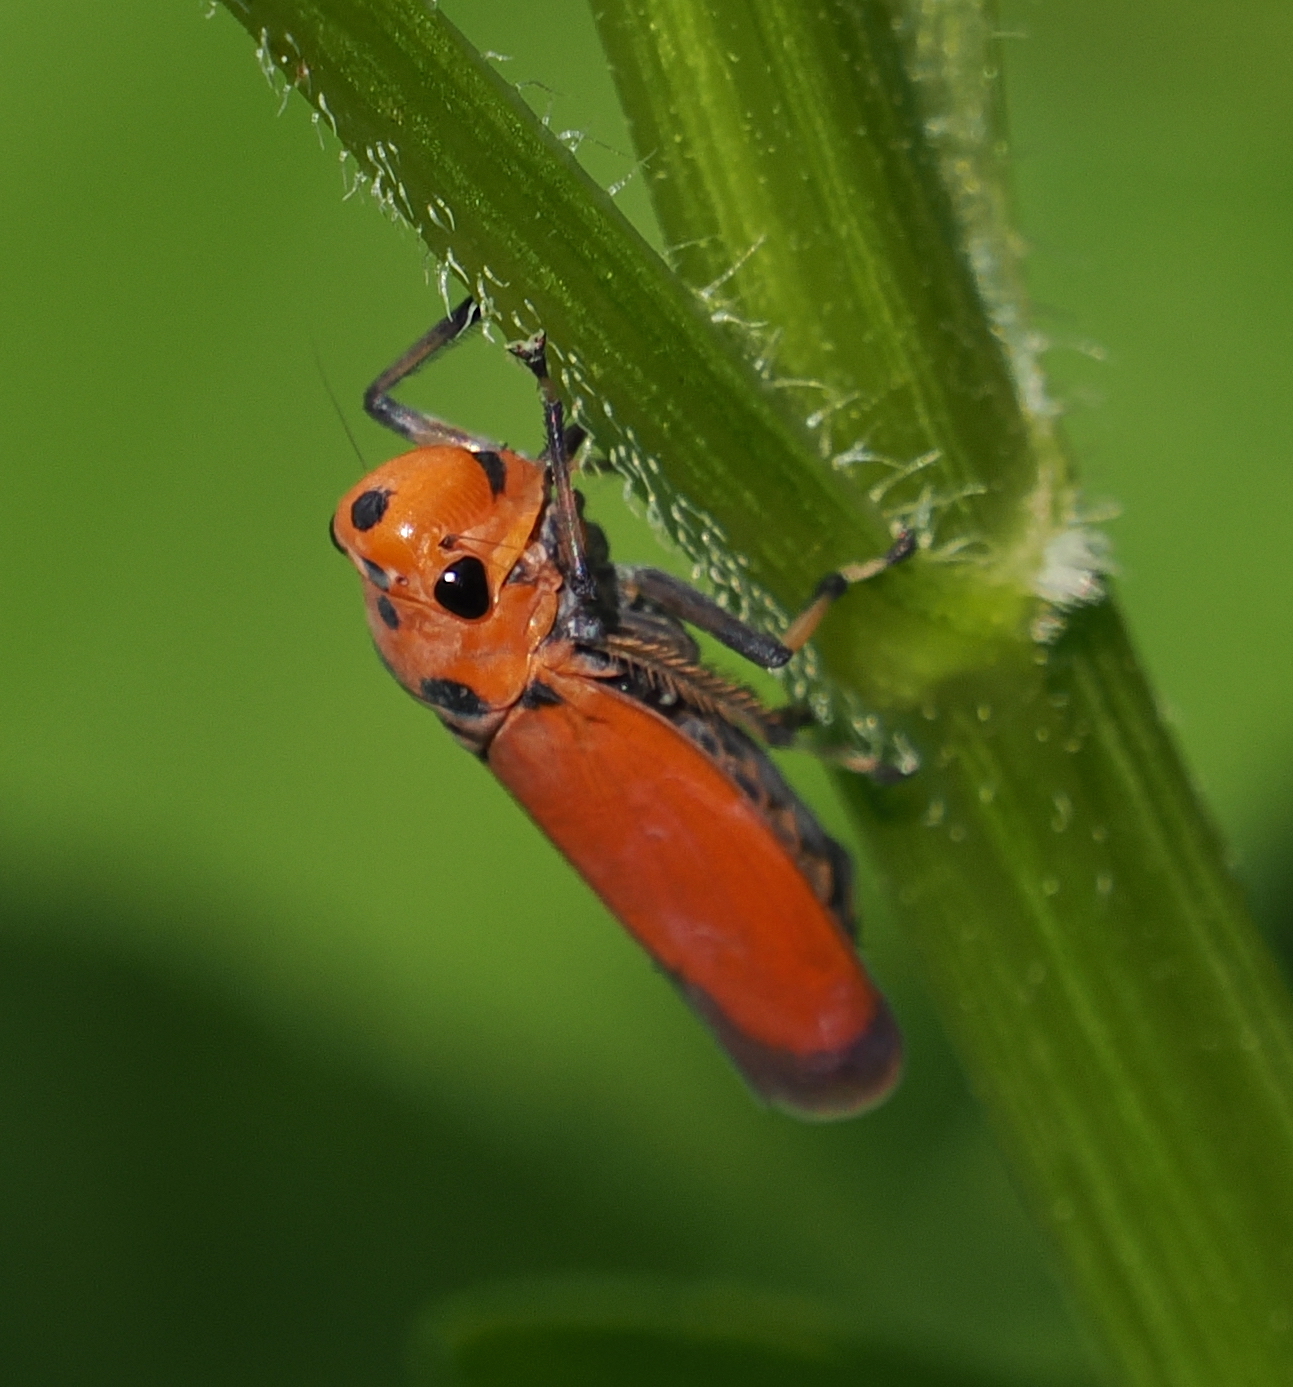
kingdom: Animalia
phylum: Arthropoda
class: Insecta
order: Hemiptera
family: Cicadellidae
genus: Bothrogonia
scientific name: Bothrogonia addita
